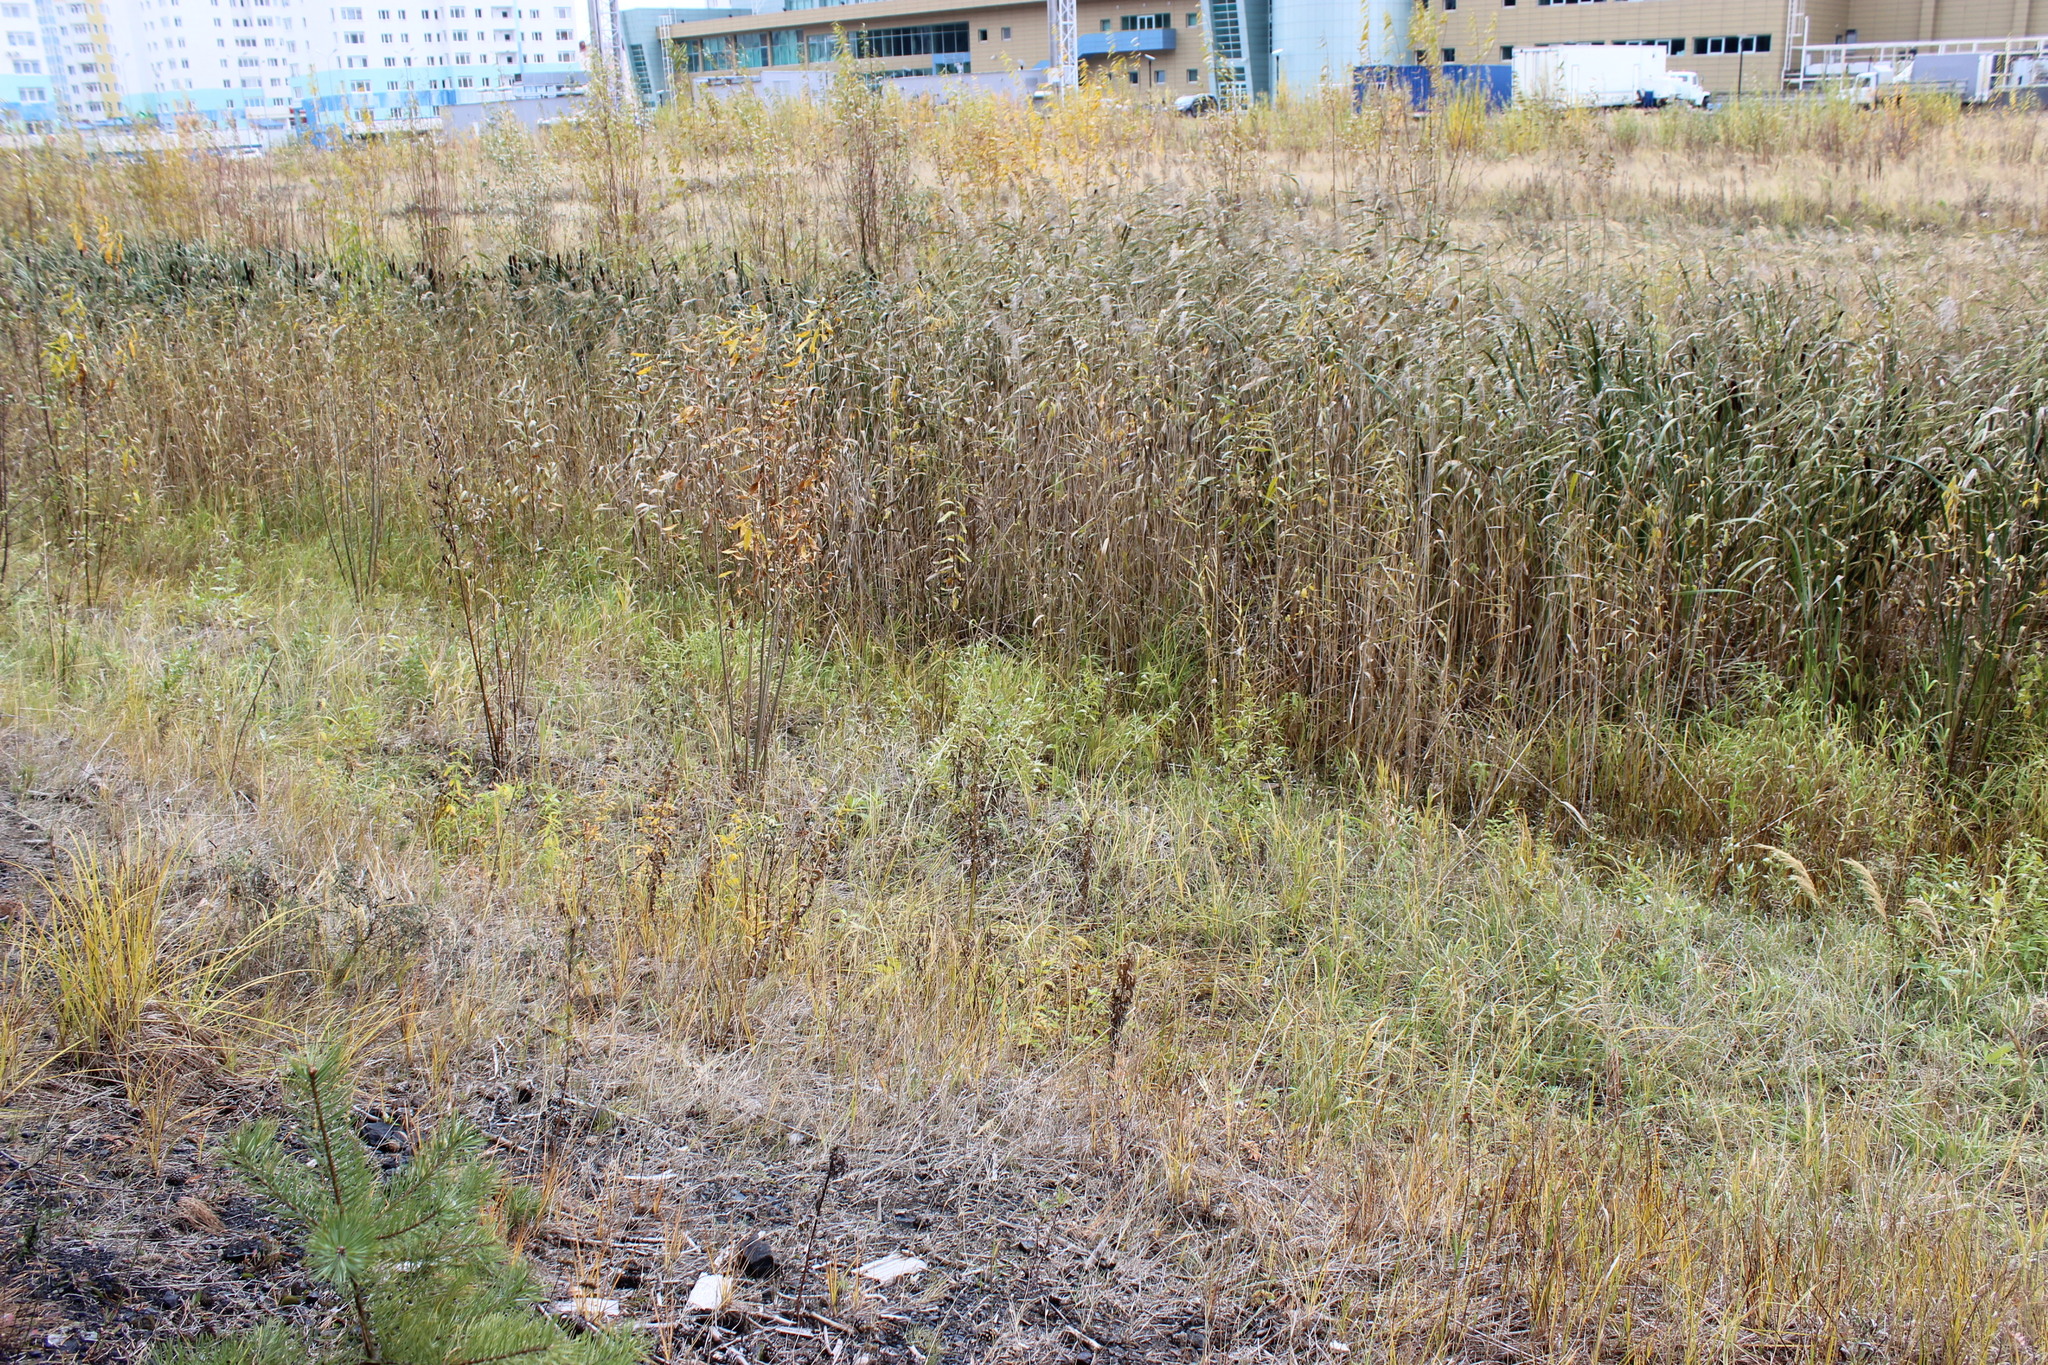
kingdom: Plantae
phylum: Tracheophyta
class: Liliopsida
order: Poales
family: Typhaceae
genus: Typha
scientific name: Typha latifolia
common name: Broadleaf cattail
